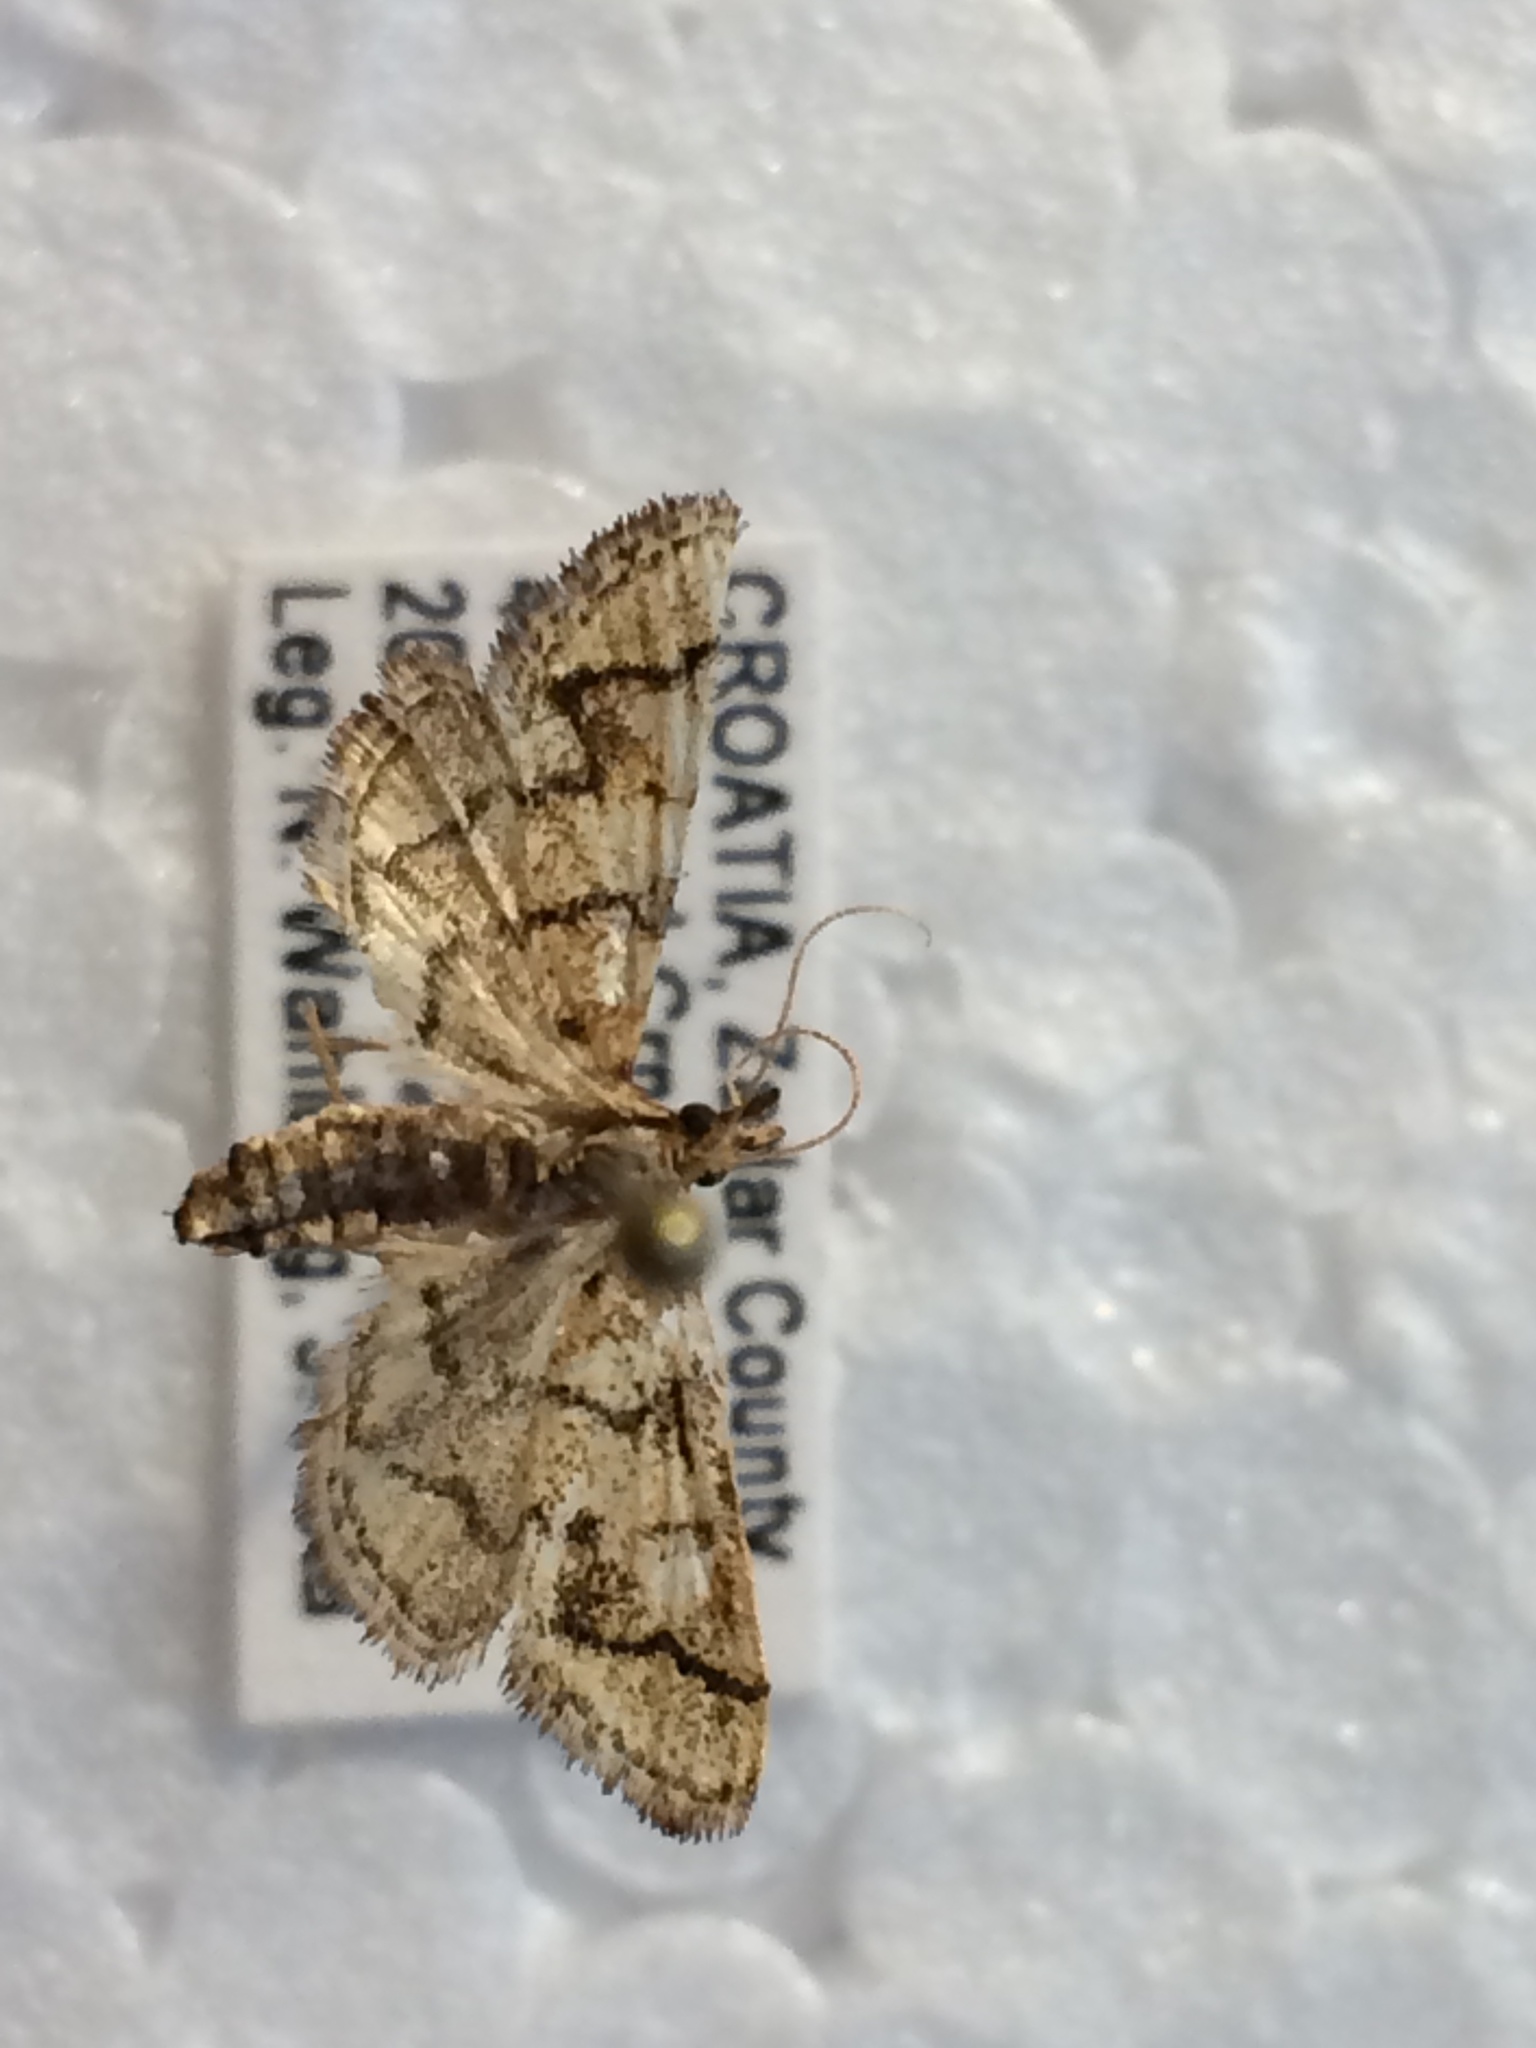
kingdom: Animalia
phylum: Arthropoda
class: Insecta
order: Lepidoptera
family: Crambidae
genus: Metasia
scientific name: Metasia ophialis
